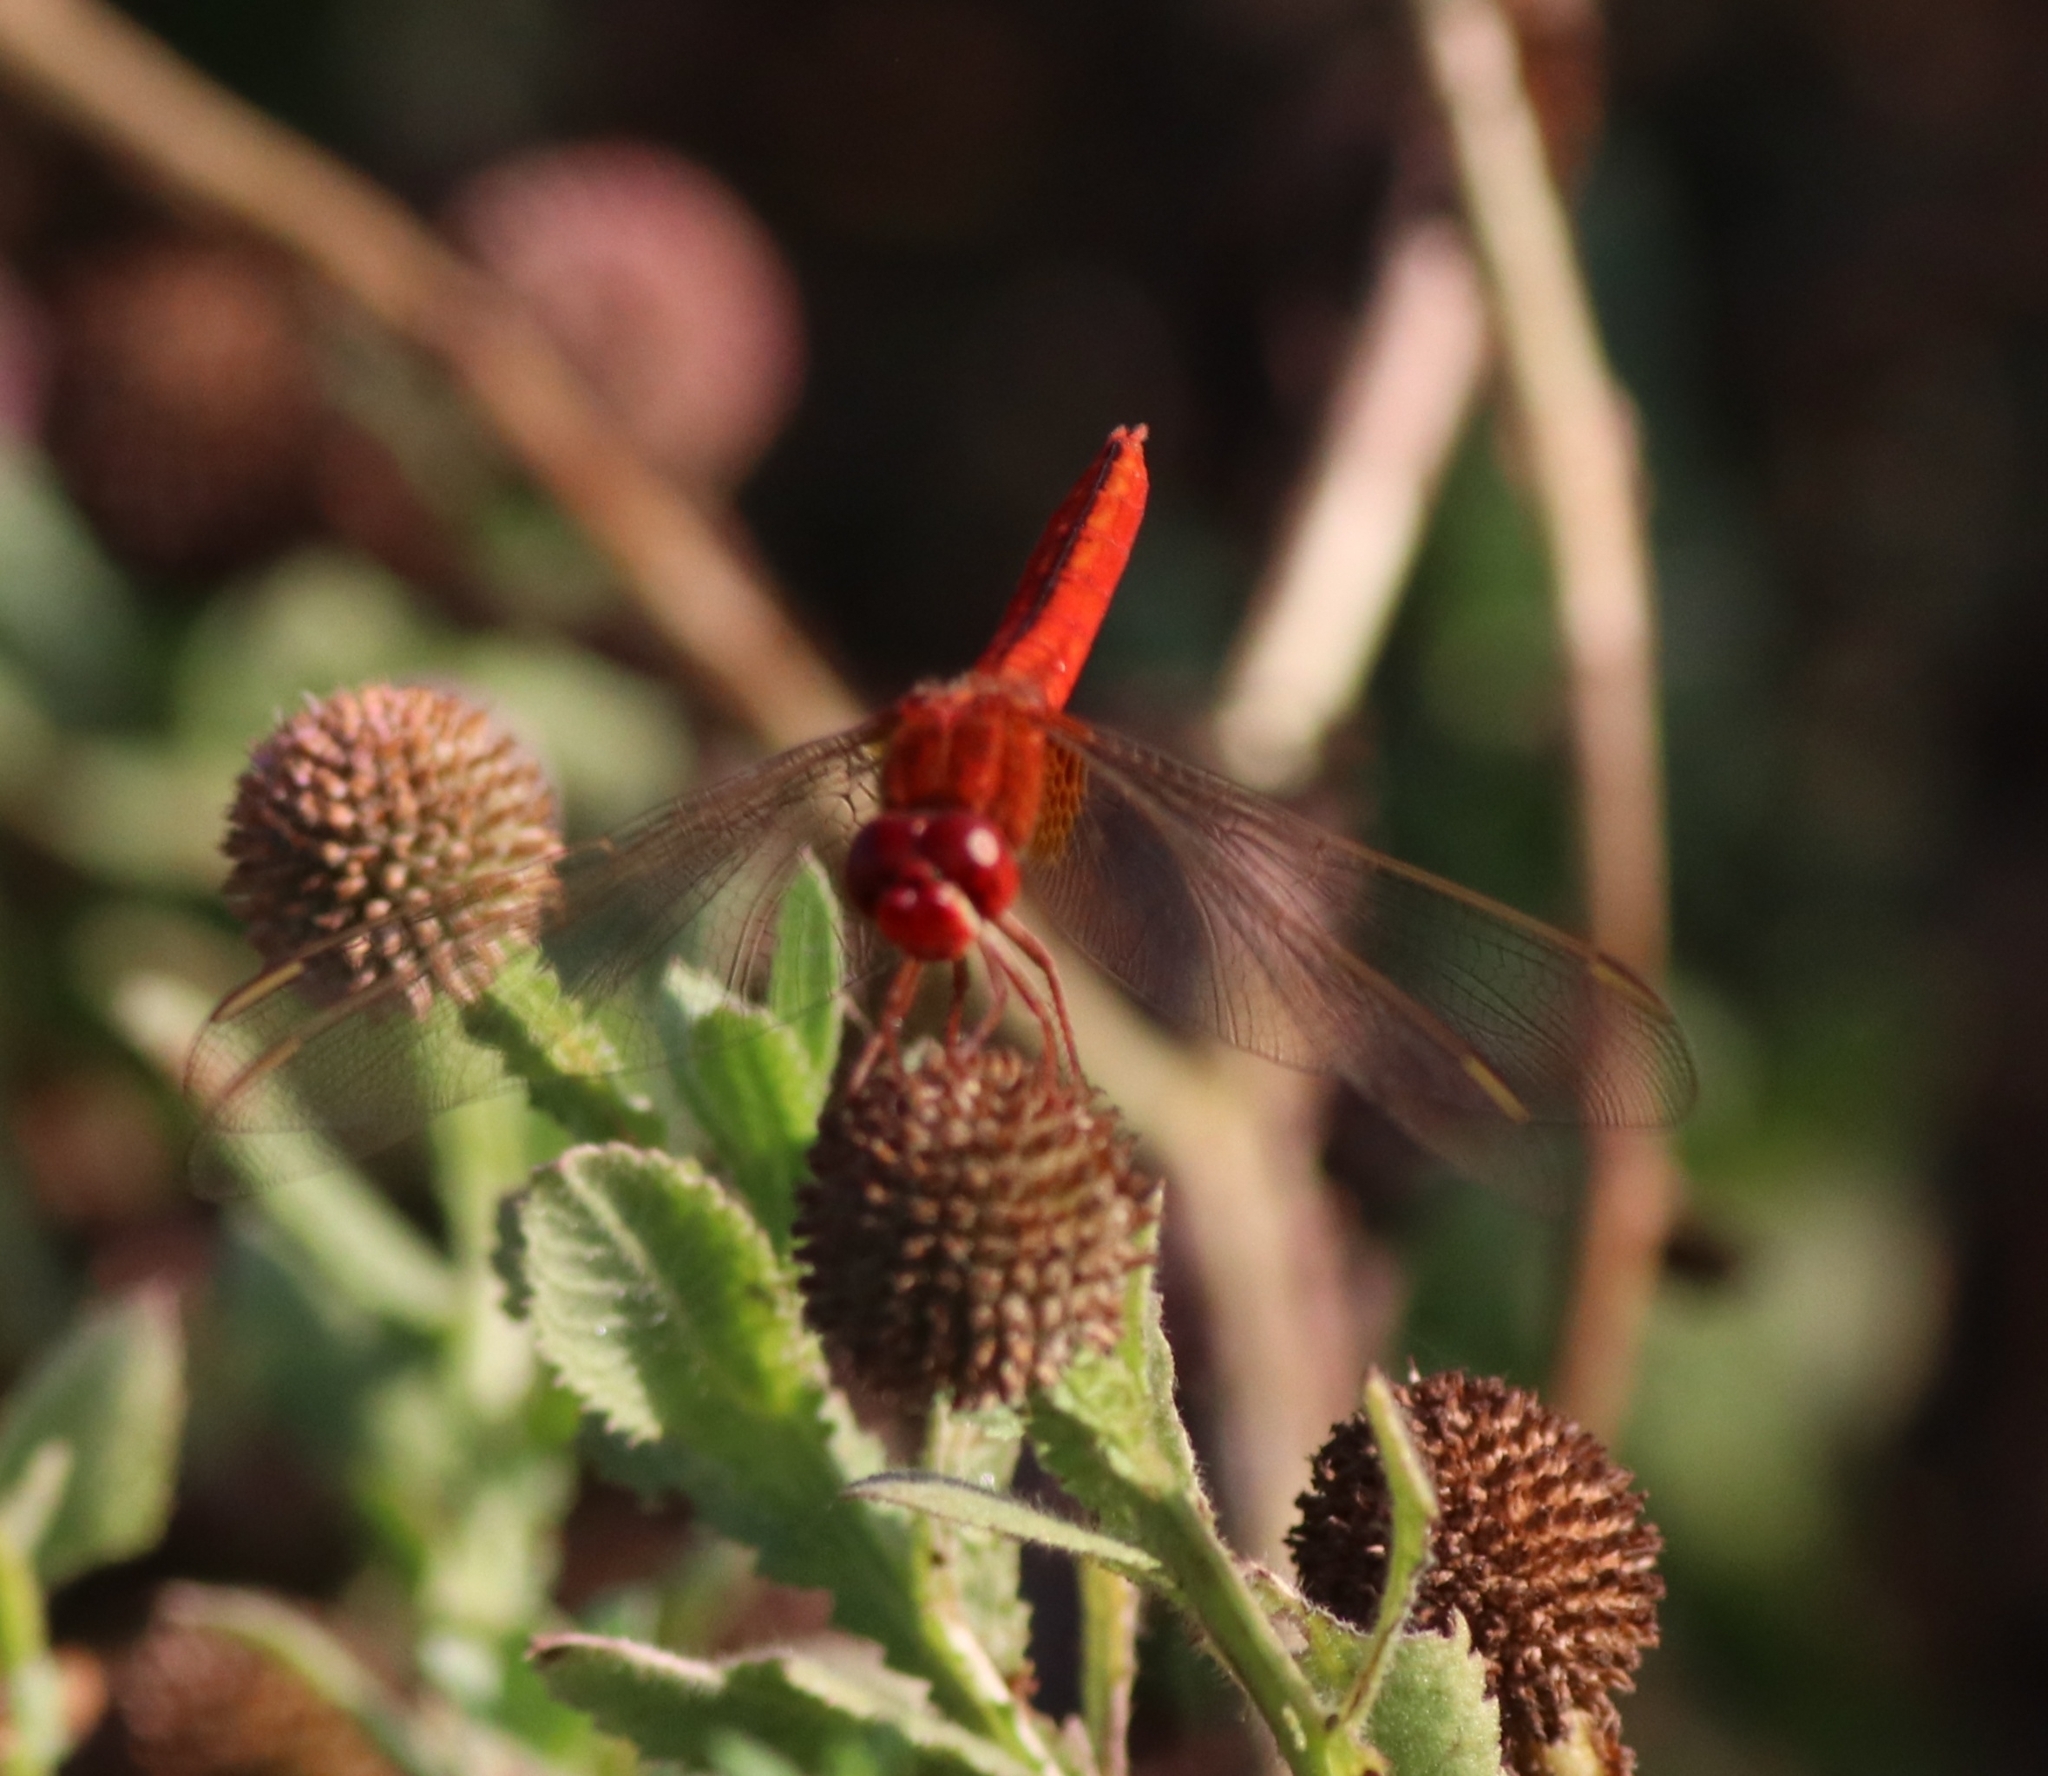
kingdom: Animalia
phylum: Arthropoda
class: Insecta
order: Odonata
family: Libellulidae
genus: Crocothemis
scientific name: Crocothemis servilia
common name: Scarlet skimmer
